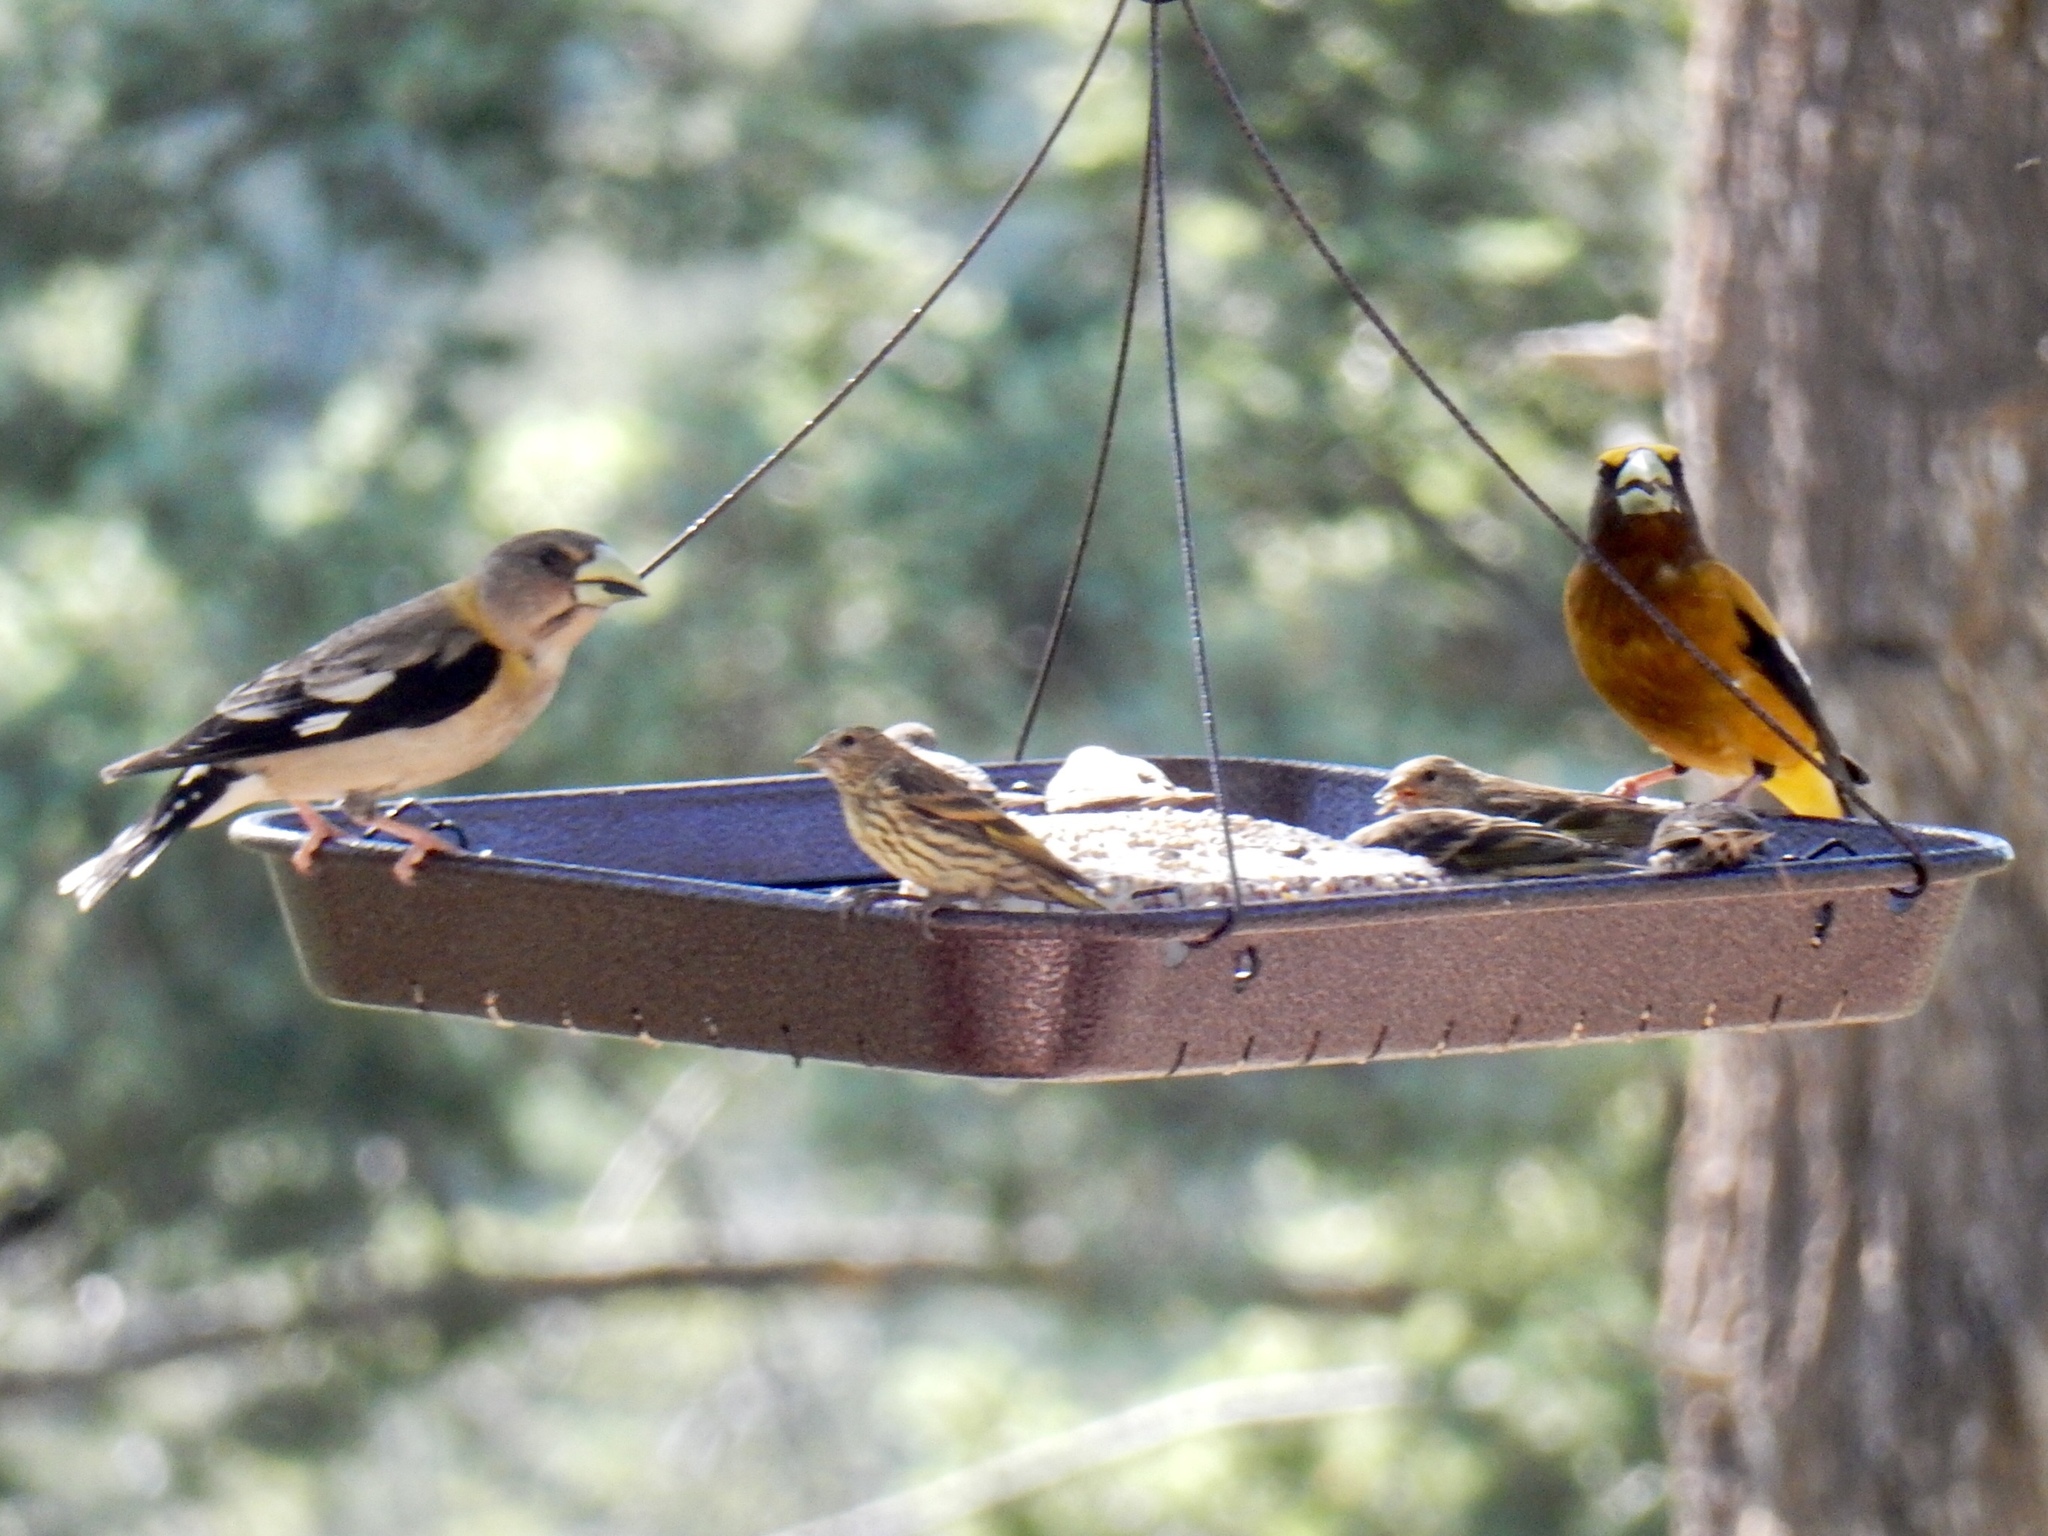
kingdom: Animalia
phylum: Chordata
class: Aves
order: Passeriformes
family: Fringillidae
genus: Hesperiphona
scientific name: Hesperiphona vespertina
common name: Evening grosbeak
